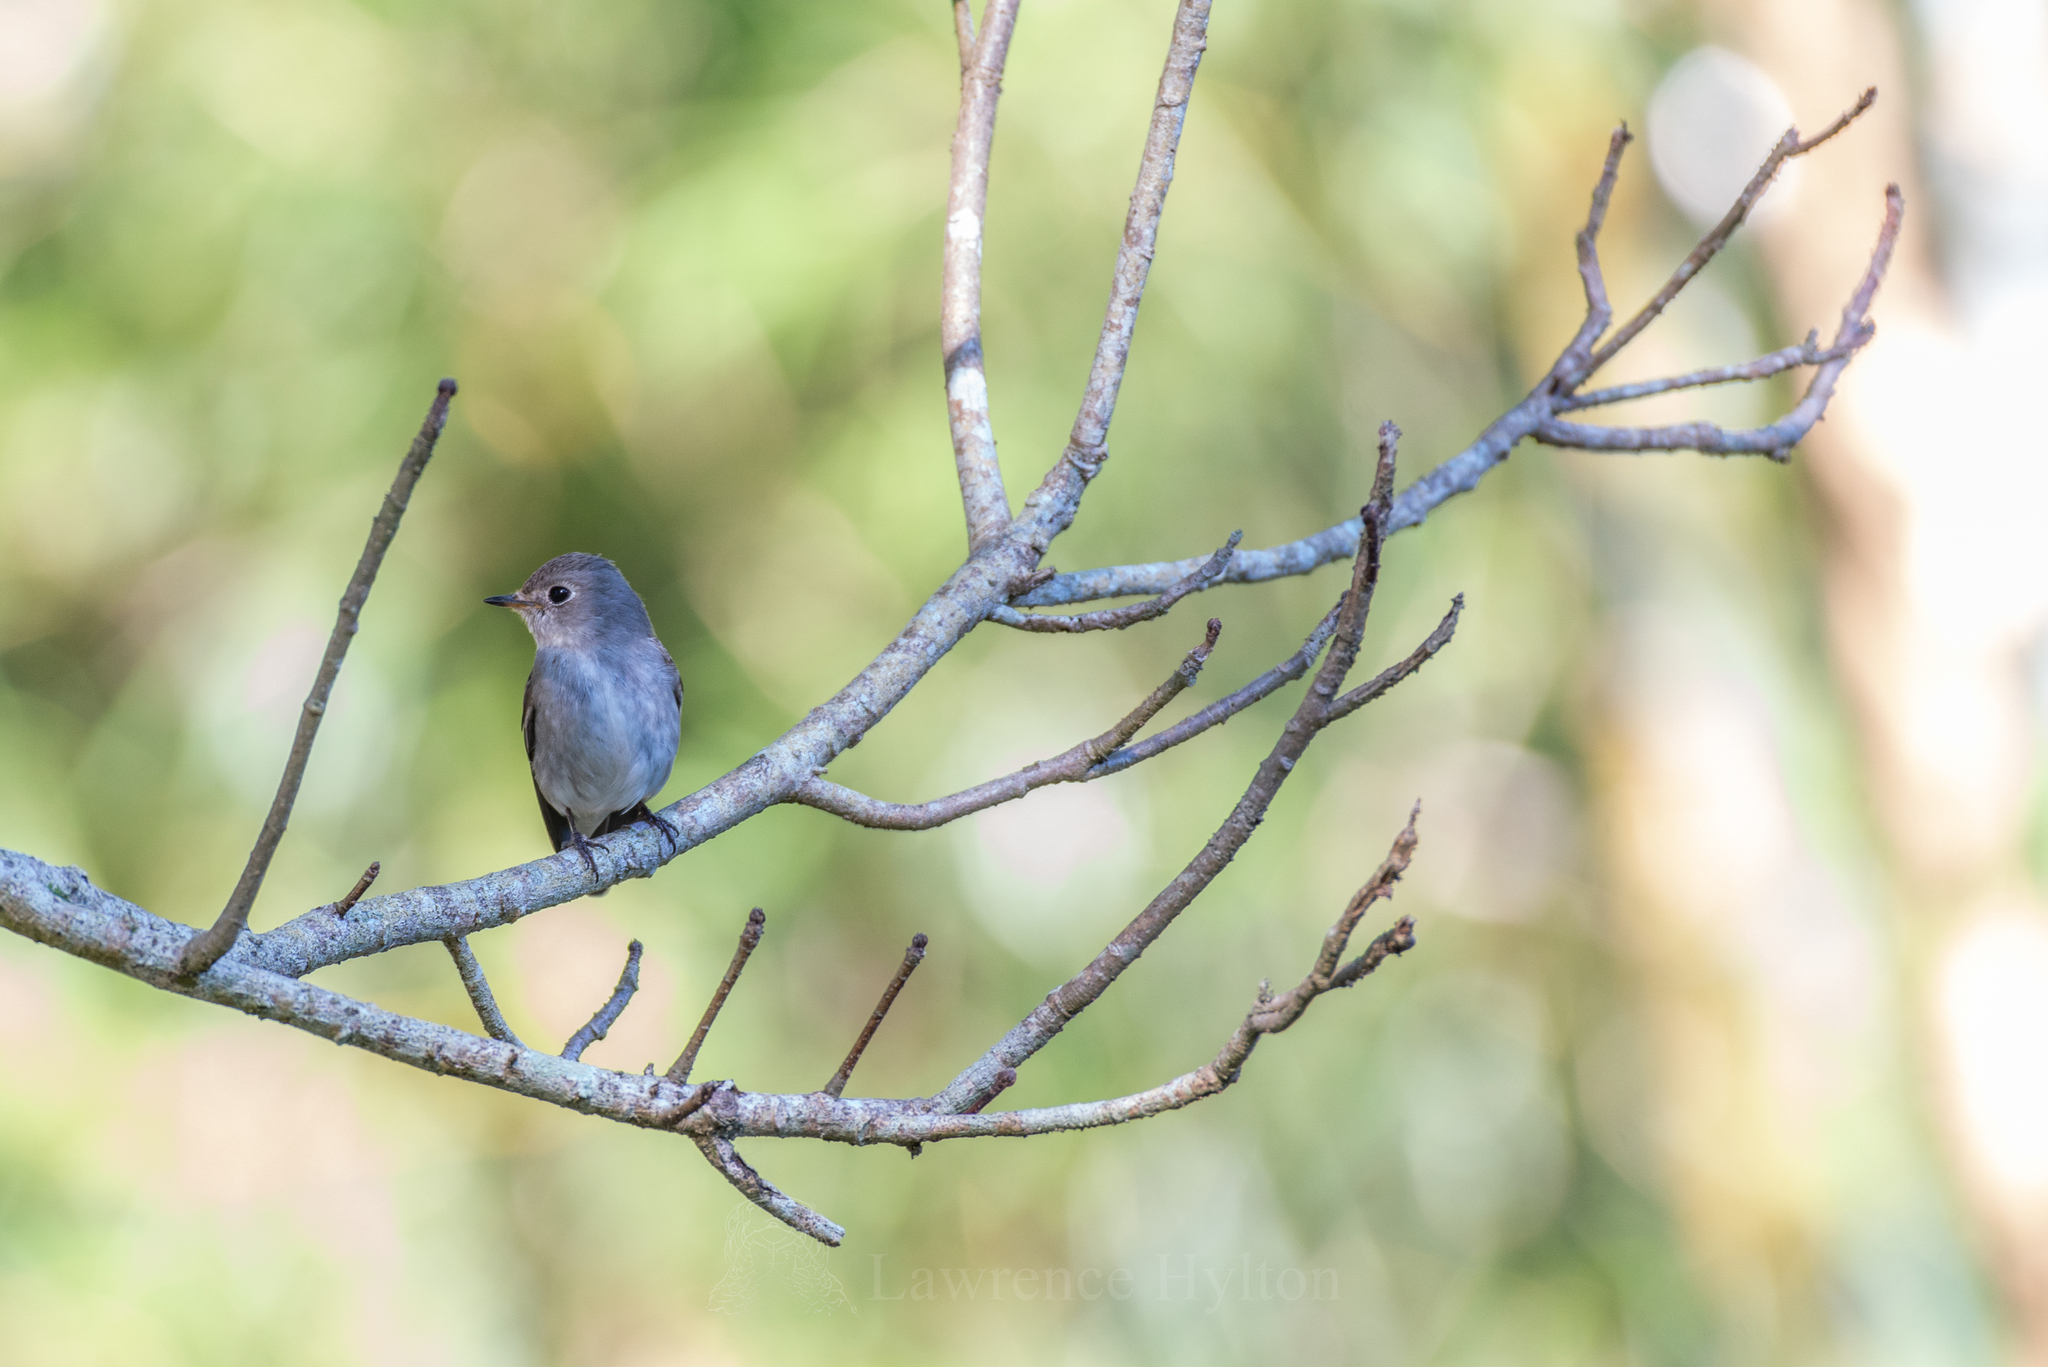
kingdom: Animalia
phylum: Chordata
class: Aves
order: Passeriformes
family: Muscicapidae
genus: Muscicapa
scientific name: Muscicapa latirostris
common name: Asian brown flycatcher
